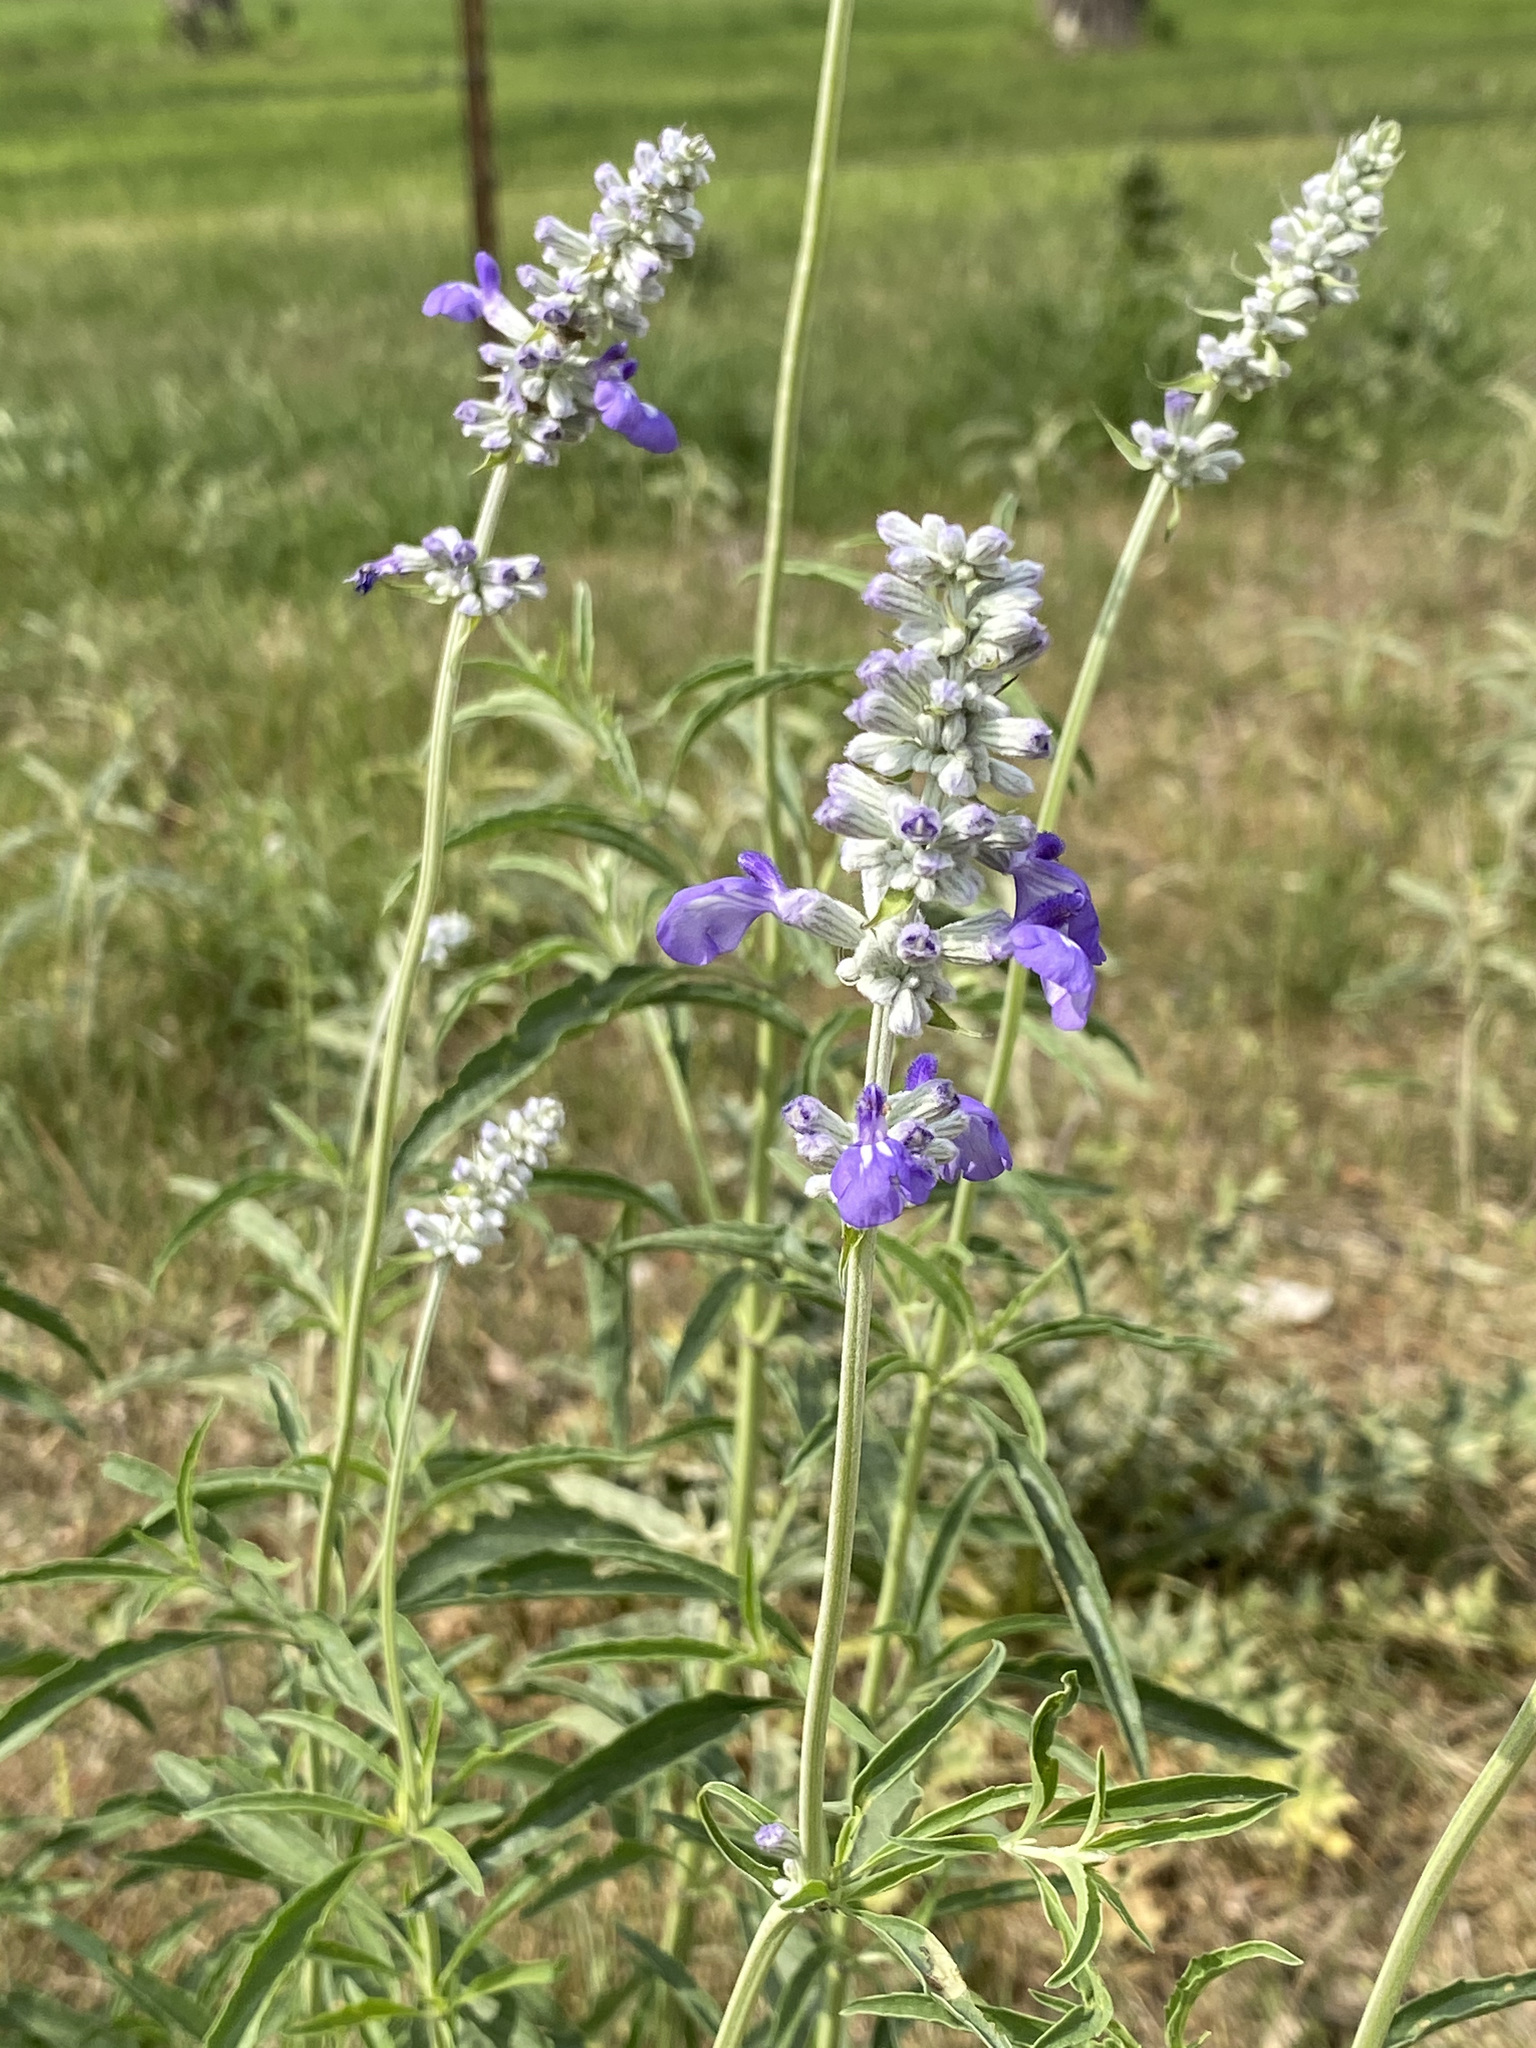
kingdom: Plantae
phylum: Tracheophyta
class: Magnoliopsida
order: Lamiales
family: Lamiaceae
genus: Salvia
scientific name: Salvia farinacea
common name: Mealy sage
